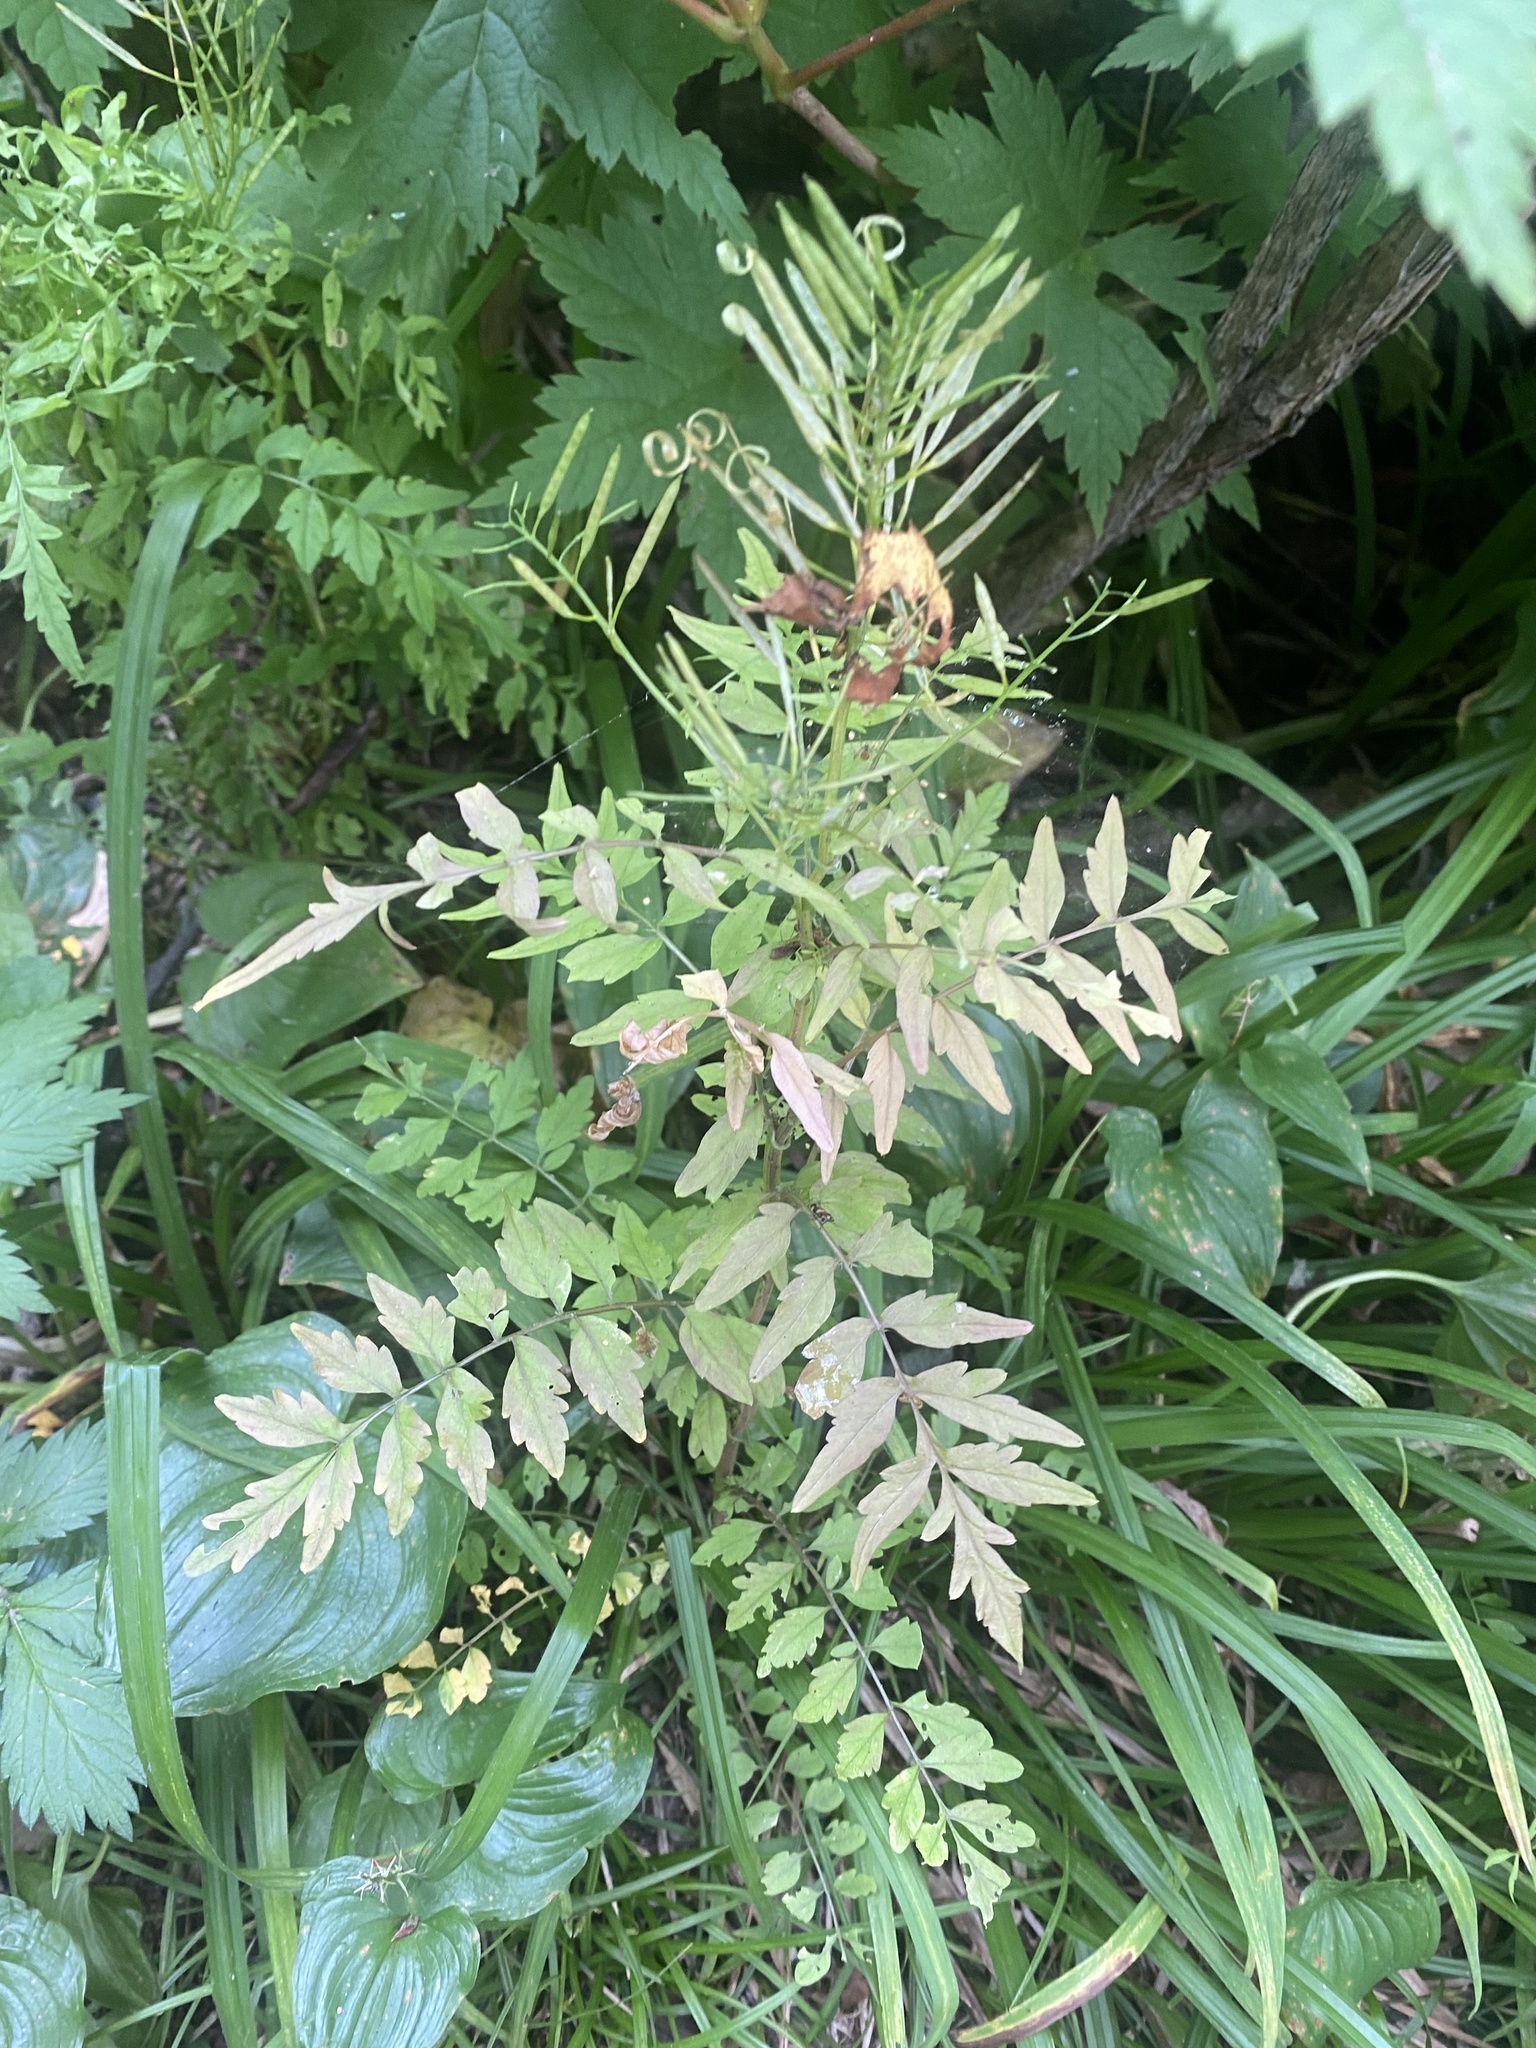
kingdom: Plantae
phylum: Tracheophyta
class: Magnoliopsida
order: Brassicales
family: Brassicaceae
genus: Cardamine
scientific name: Cardamine impatiens
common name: Narrow-leaved bitter-cress
